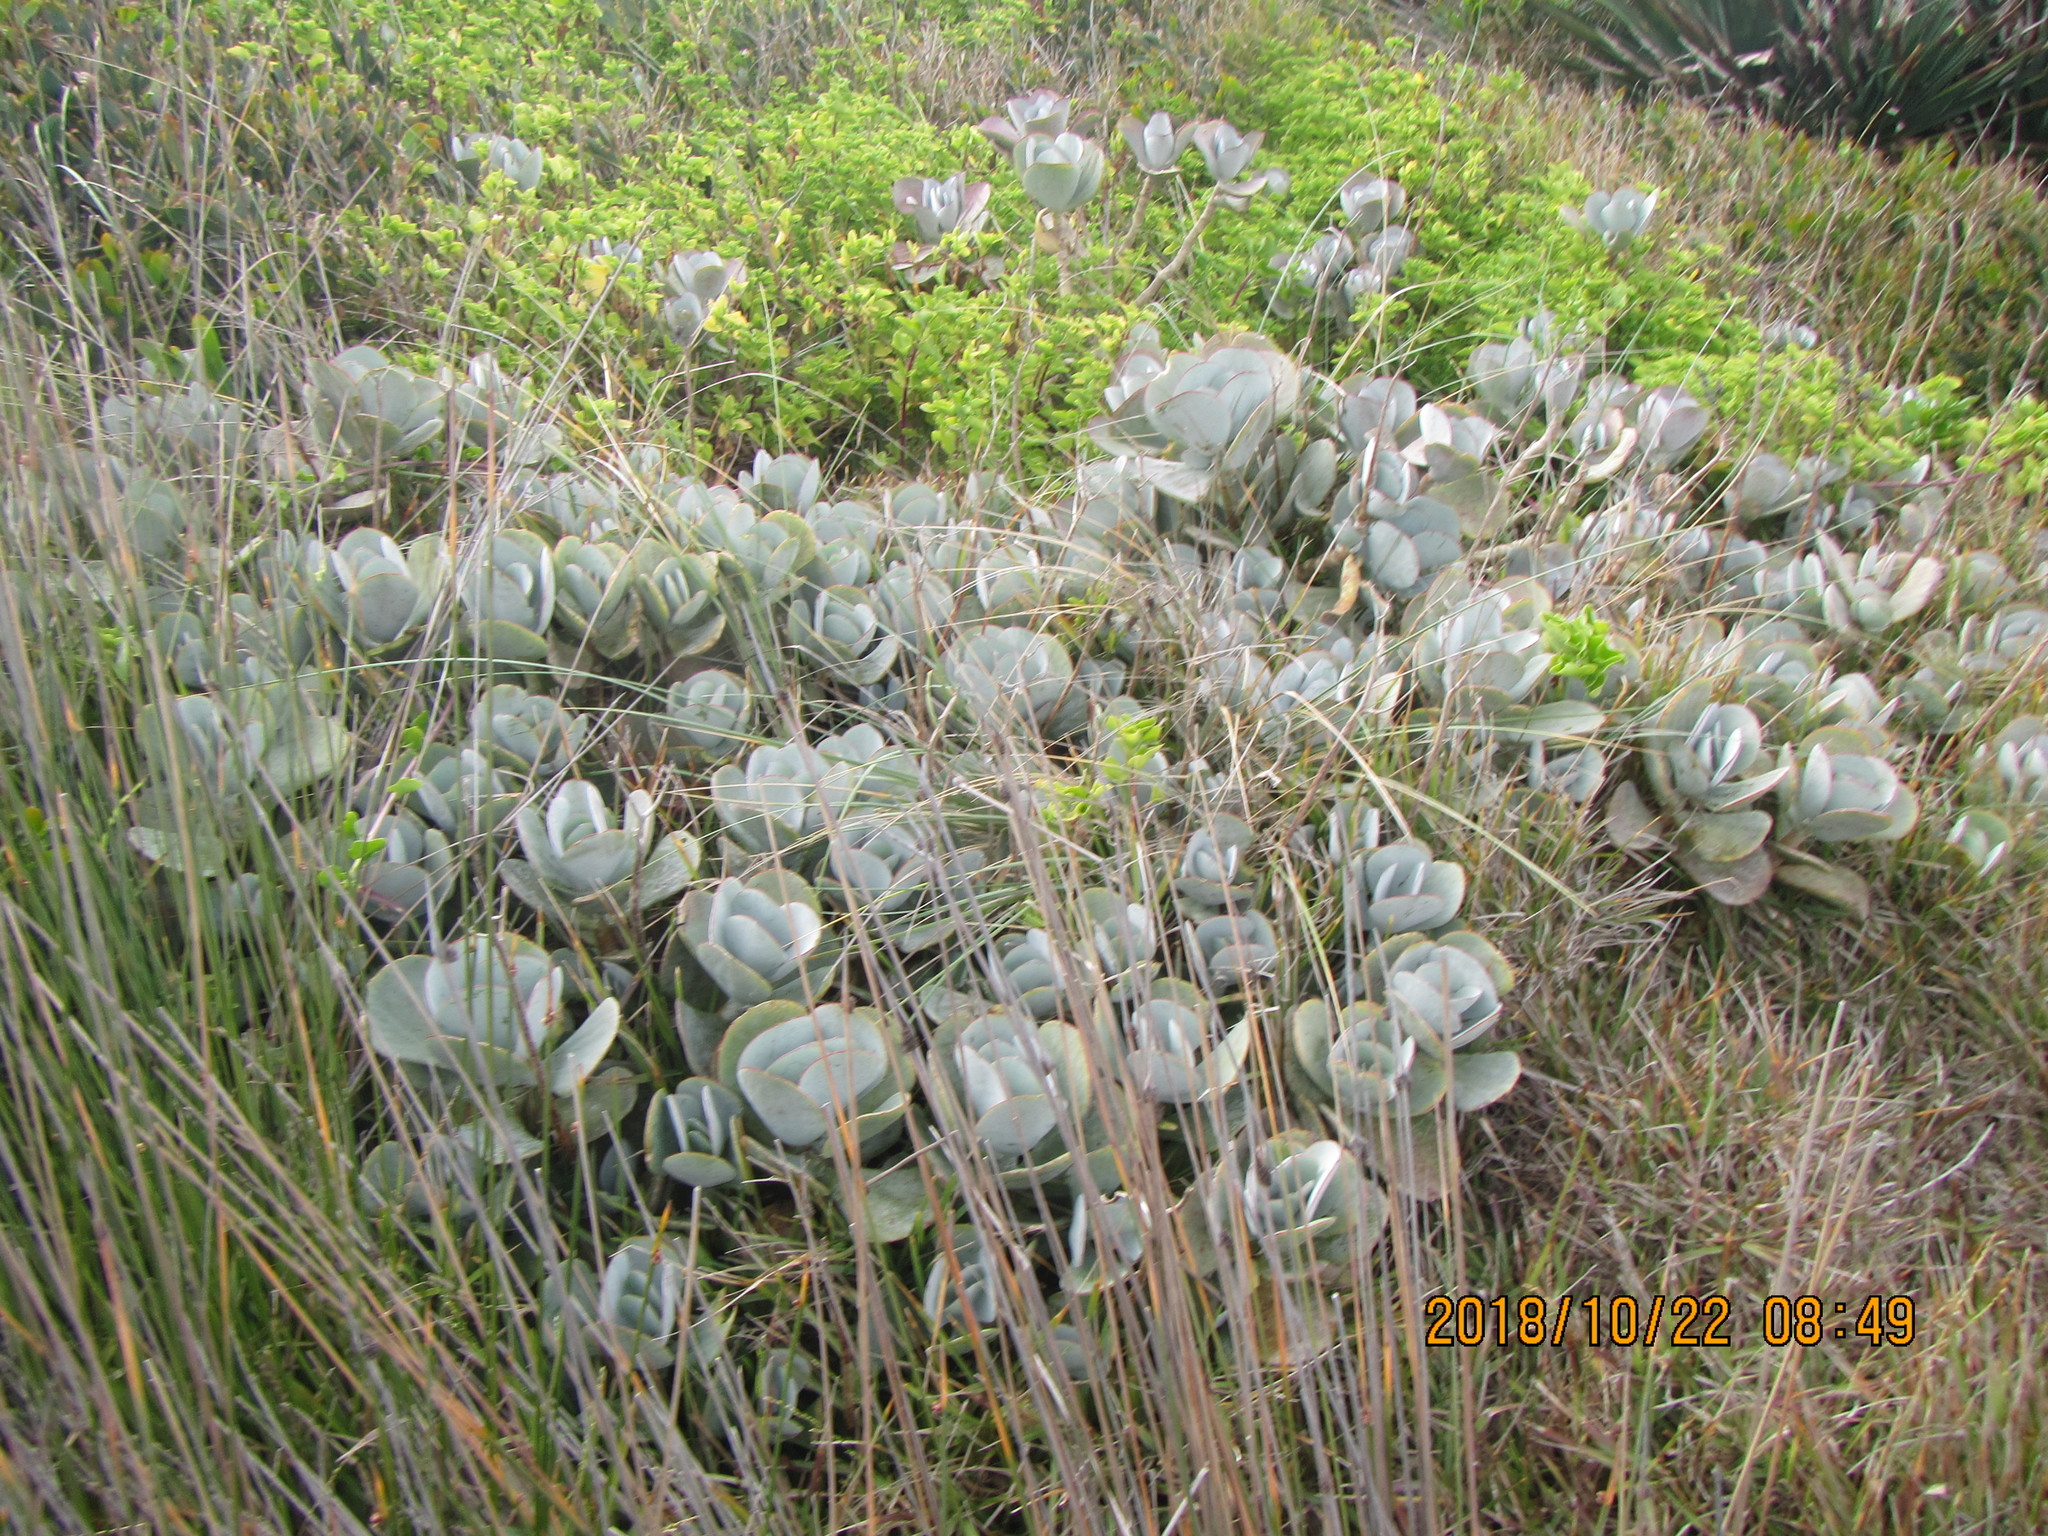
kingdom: Plantae
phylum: Tracheophyta
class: Magnoliopsida
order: Saxifragales
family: Crassulaceae
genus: Cotyledon
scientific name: Cotyledon orbiculata
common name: Pig's ear
